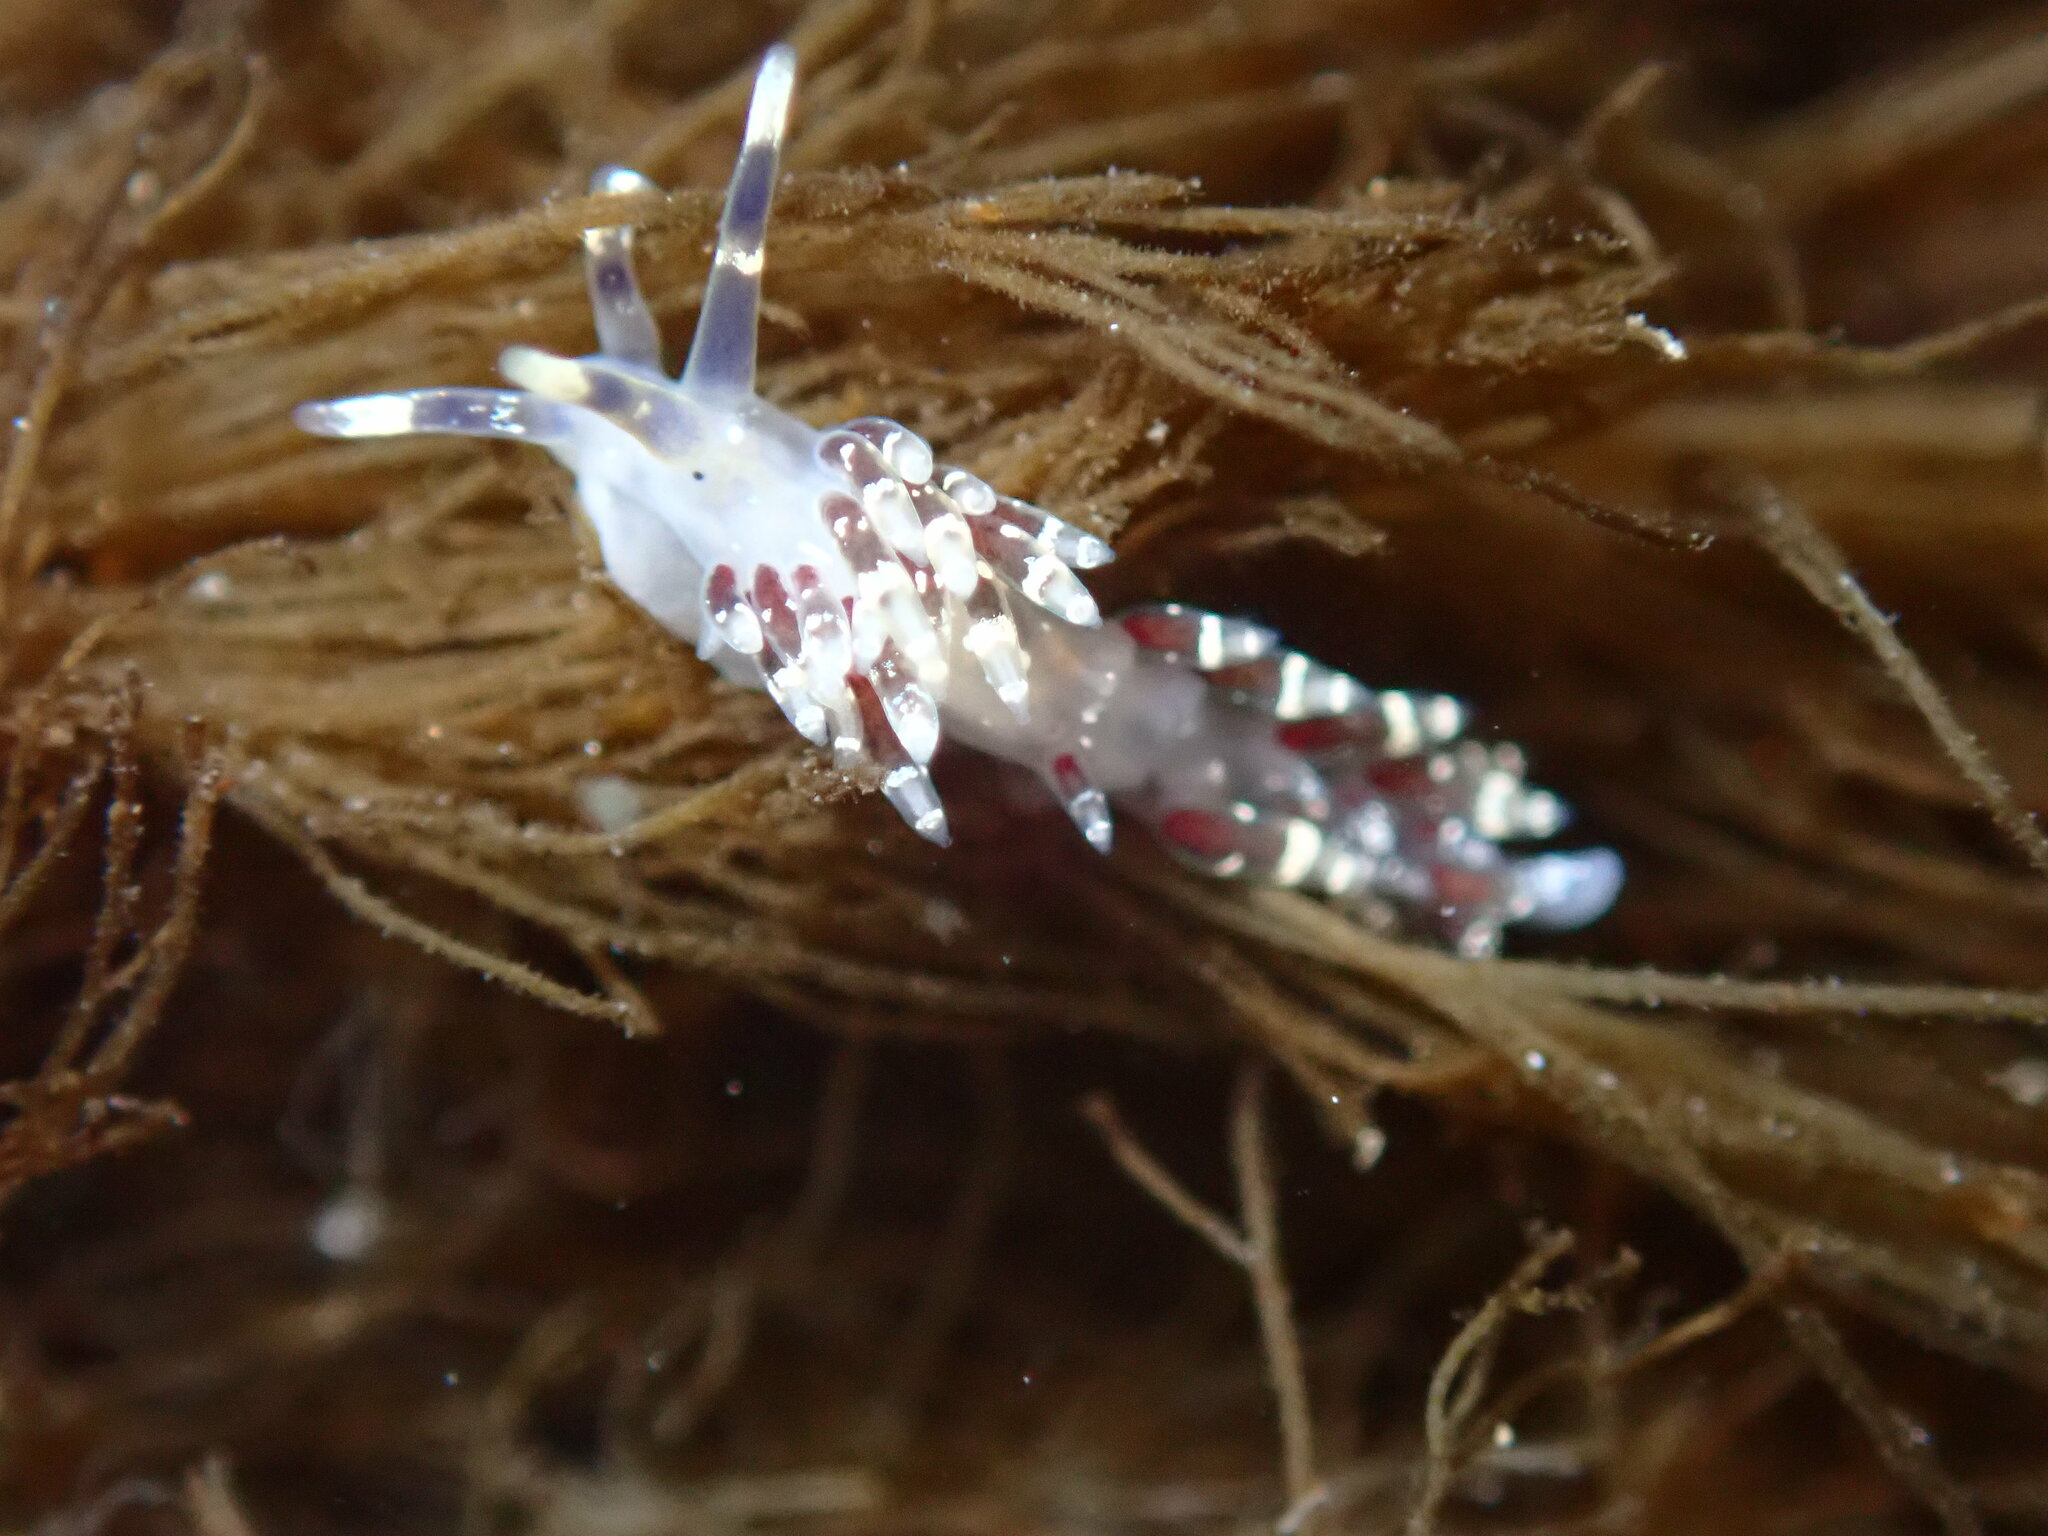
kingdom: Animalia
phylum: Mollusca
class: Gastropoda
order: Nudibranchia
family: Abronicidae
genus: Abronica
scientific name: Abronica abronia
